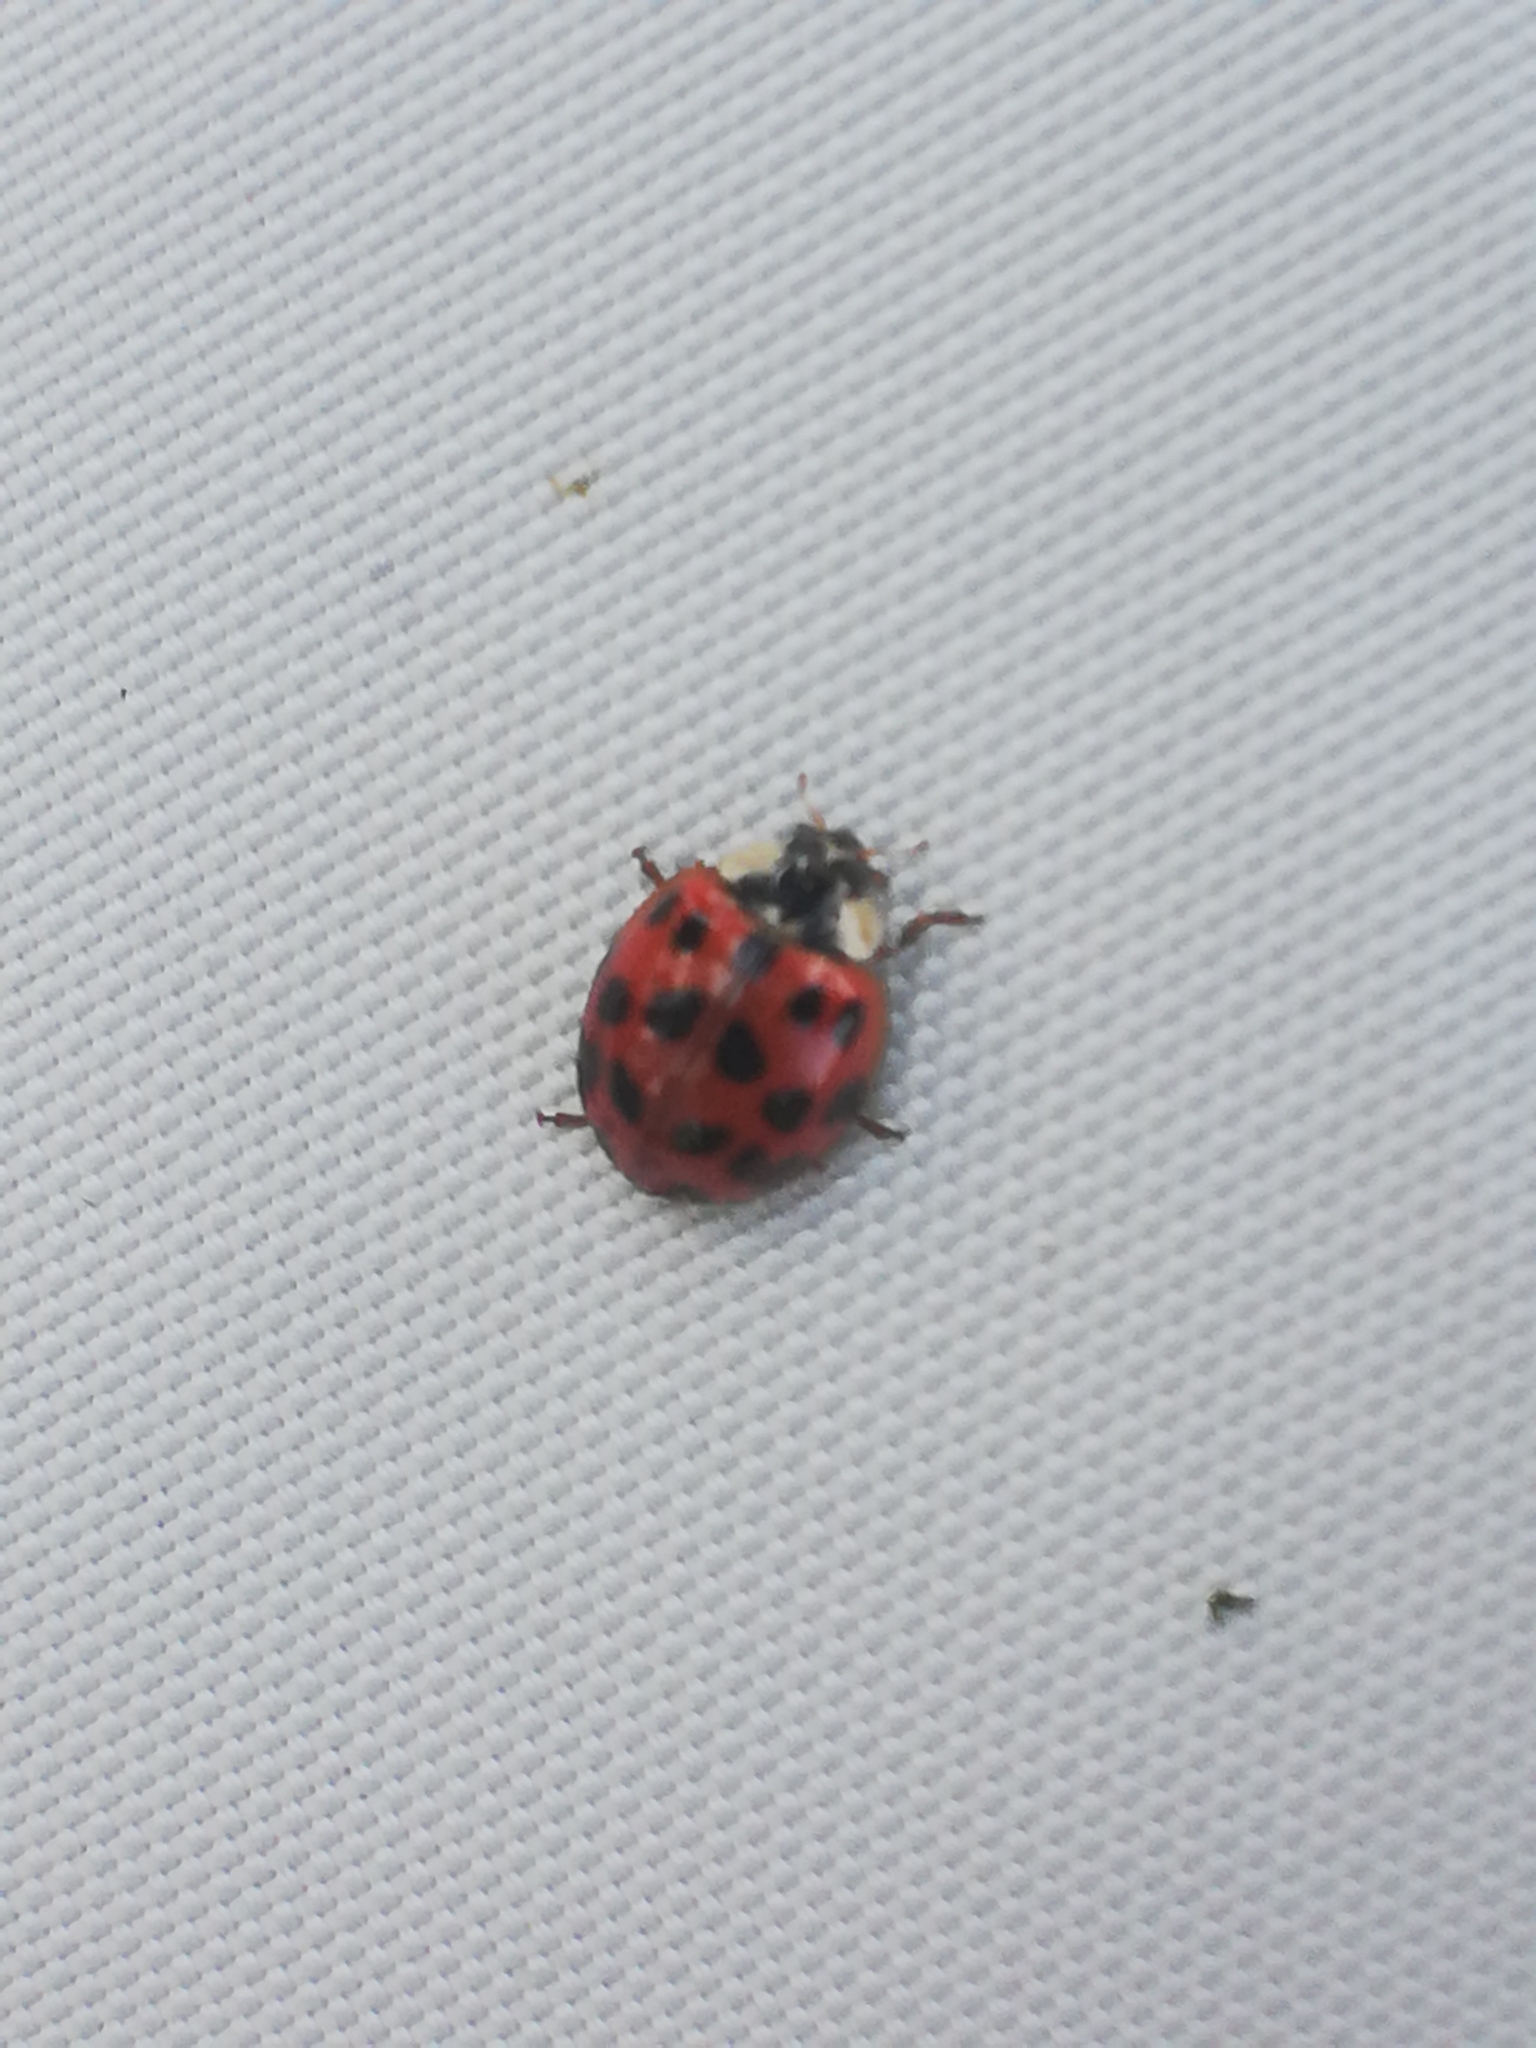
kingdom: Animalia
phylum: Arthropoda
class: Insecta
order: Coleoptera
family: Coccinellidae
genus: Harmonia
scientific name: Harmonia axyridis
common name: Harlequin ladybird
